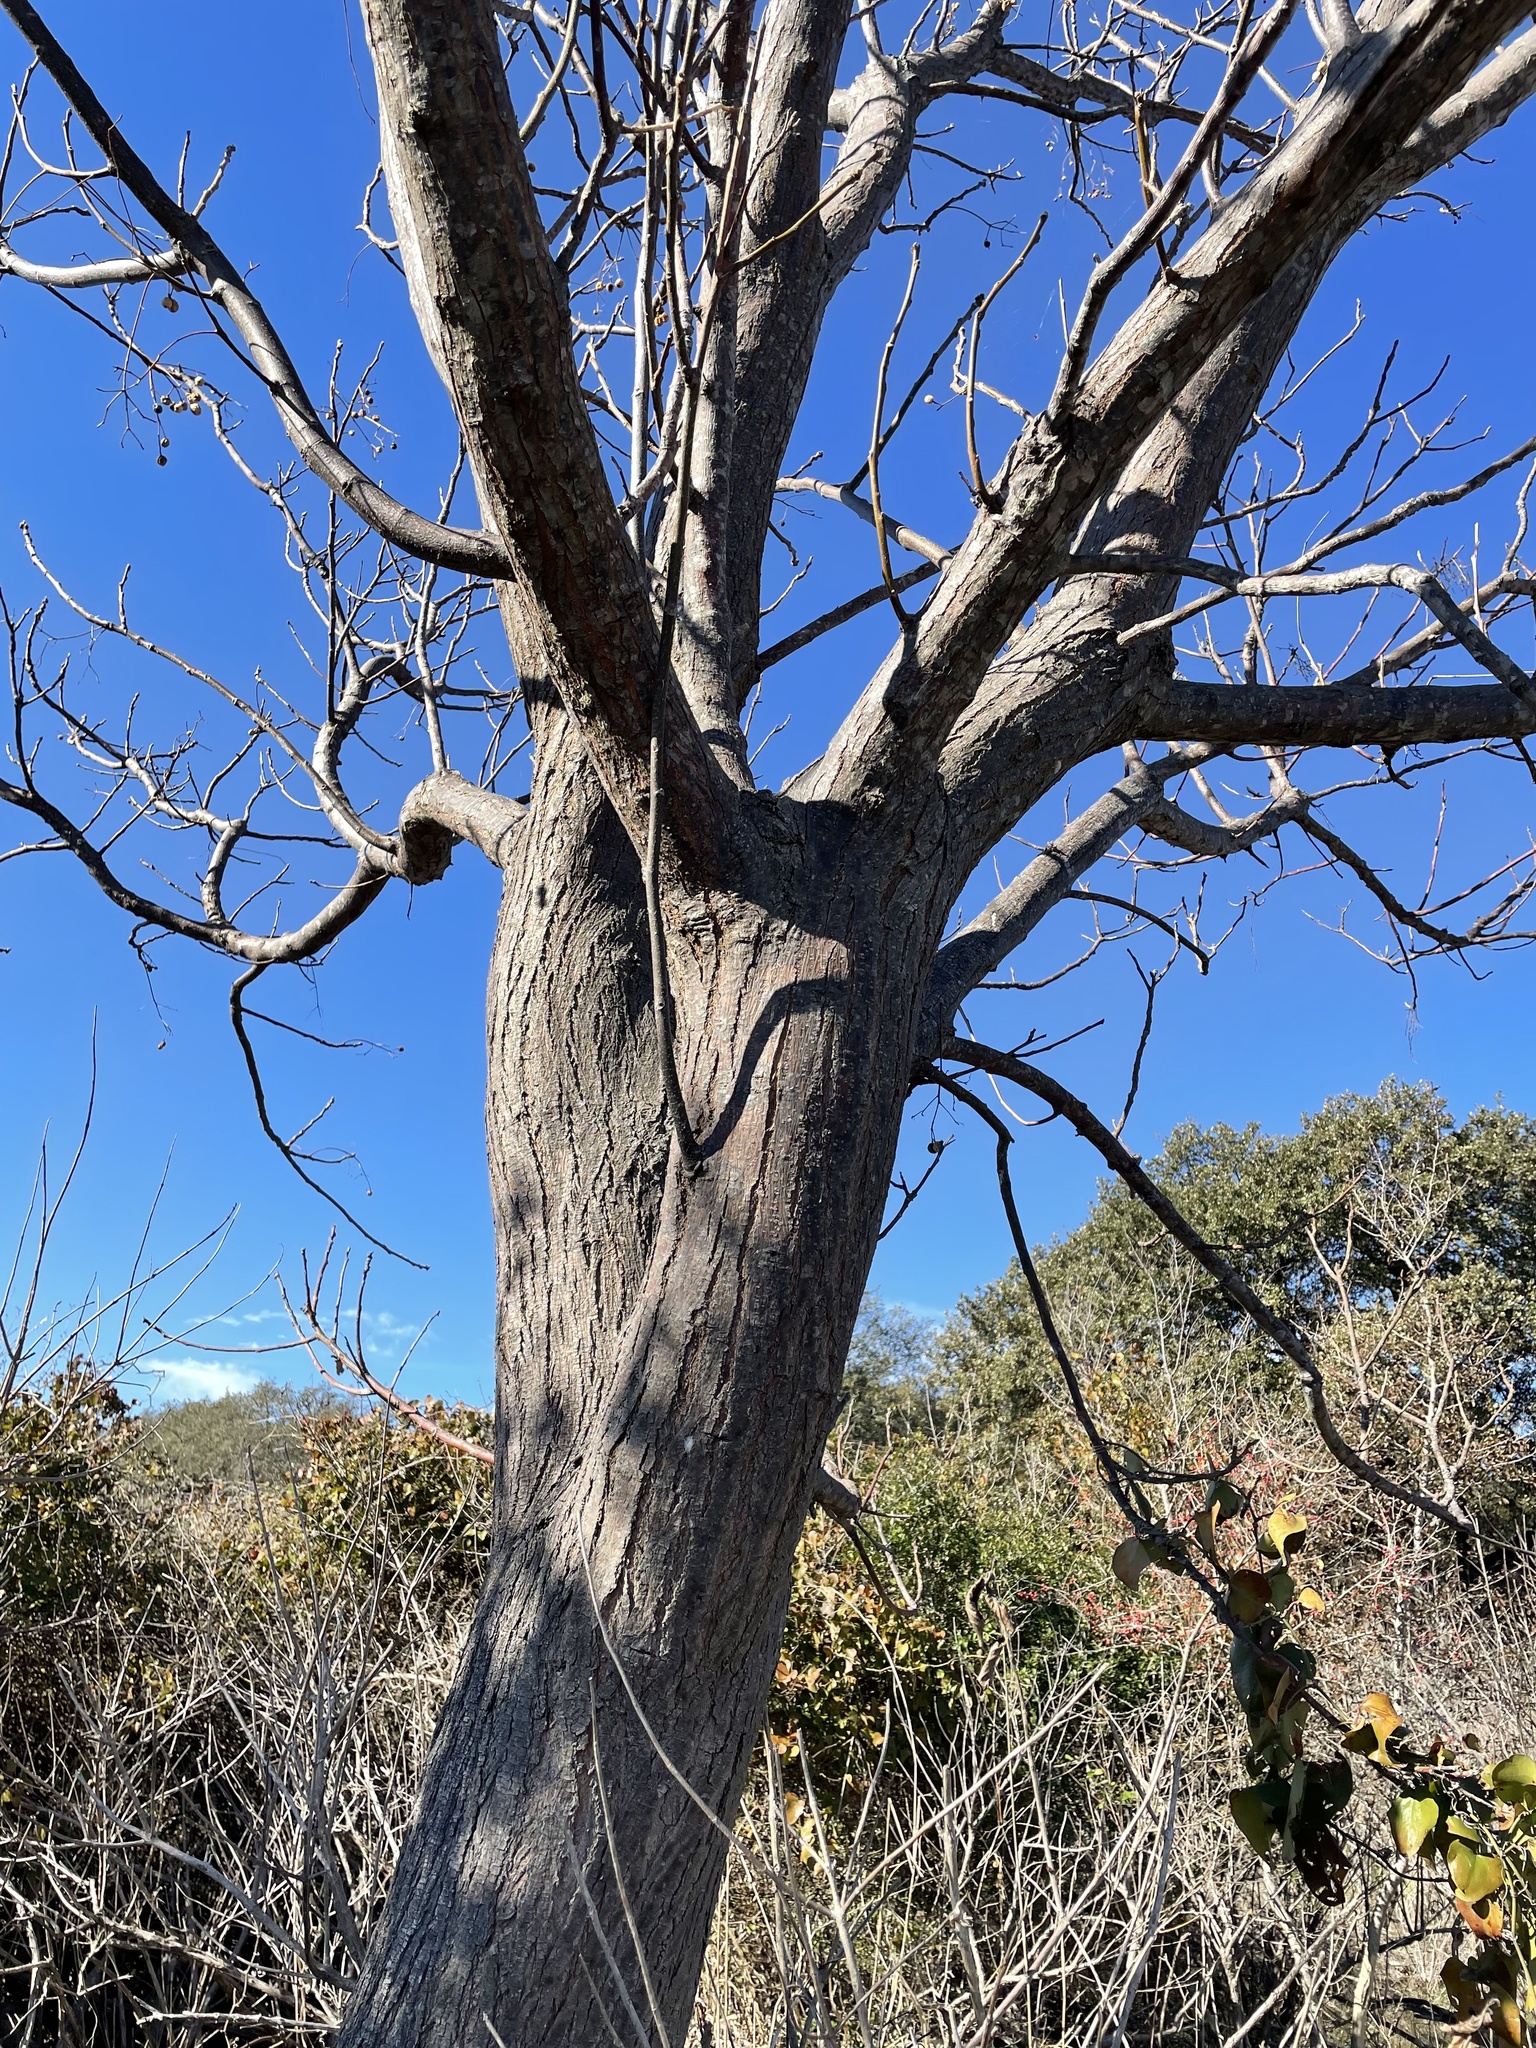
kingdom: Plantae
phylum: Tracheophyta
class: Magnoliopsida
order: Sapindales
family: Meliaceae
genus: Melia
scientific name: Melia azedarach
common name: Chinaberrytree
